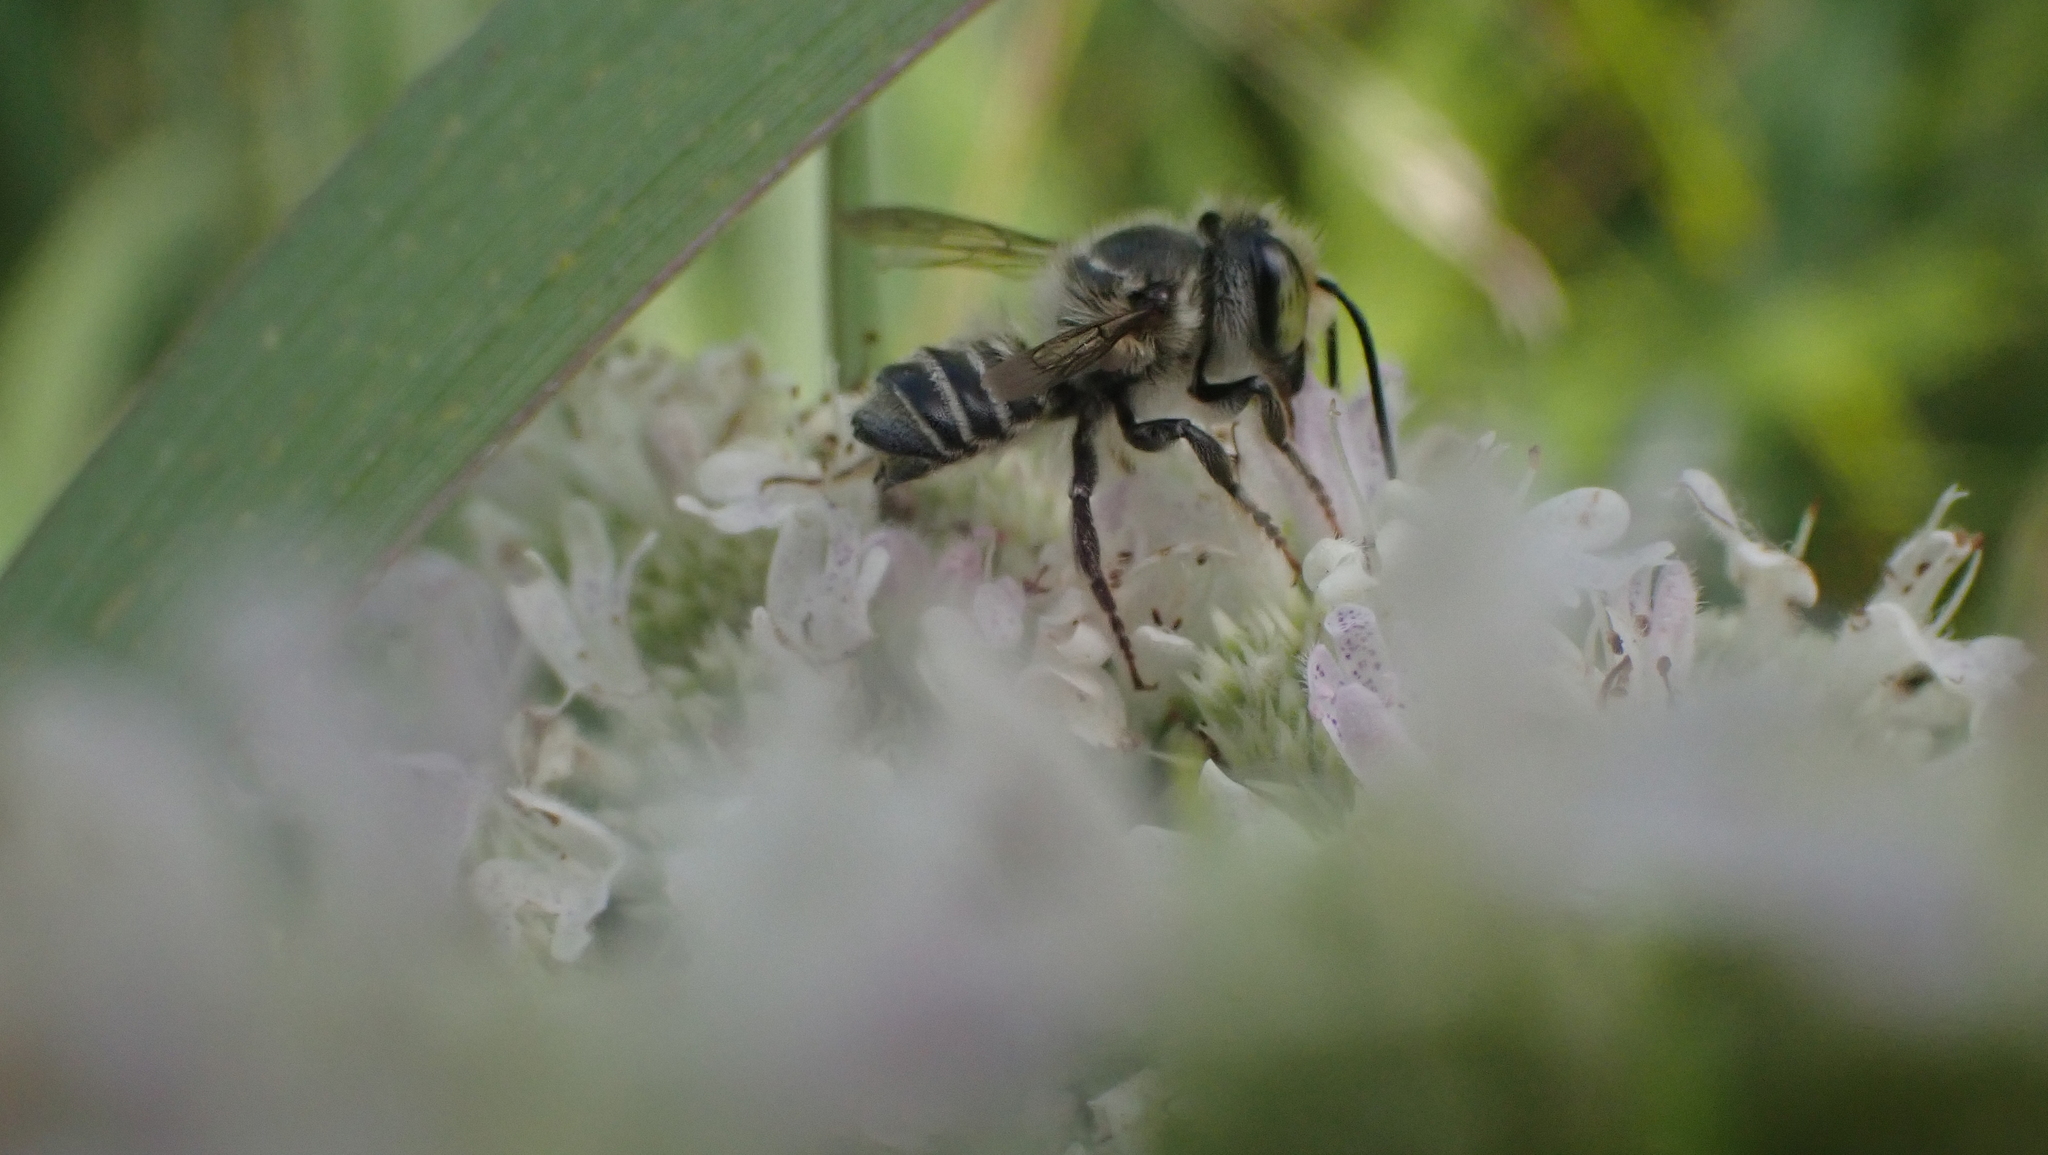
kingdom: Animalia
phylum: Arthropoda
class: Insecta
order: Hymenoptera
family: Megachilidae
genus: Megachile
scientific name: Megachile petulans
